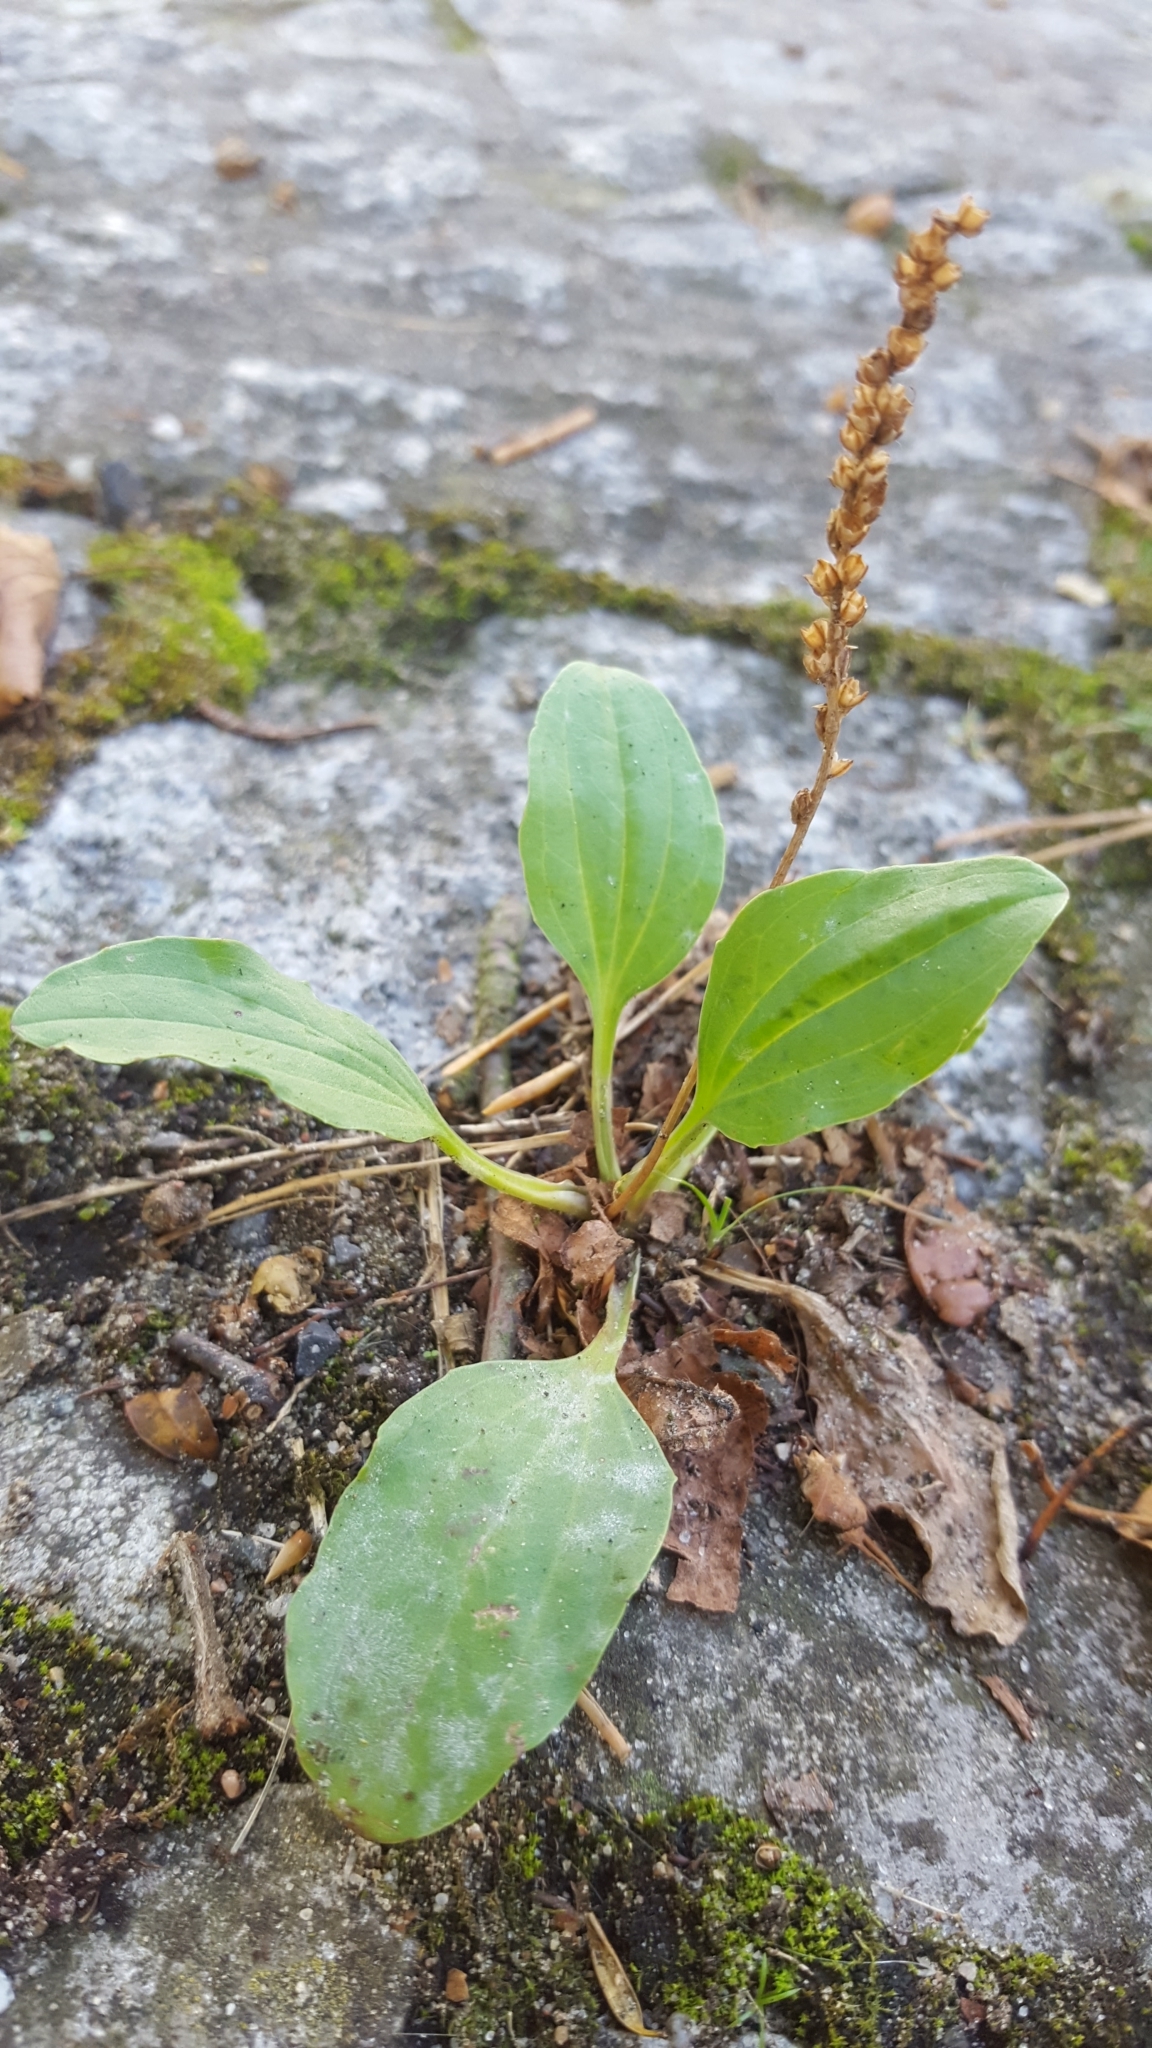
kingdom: Plantae
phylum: Tracheophyta
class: Magnoliopsida
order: Lamiales
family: Plantaginaceae
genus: Plantago
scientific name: Plantago major
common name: Common plantain
